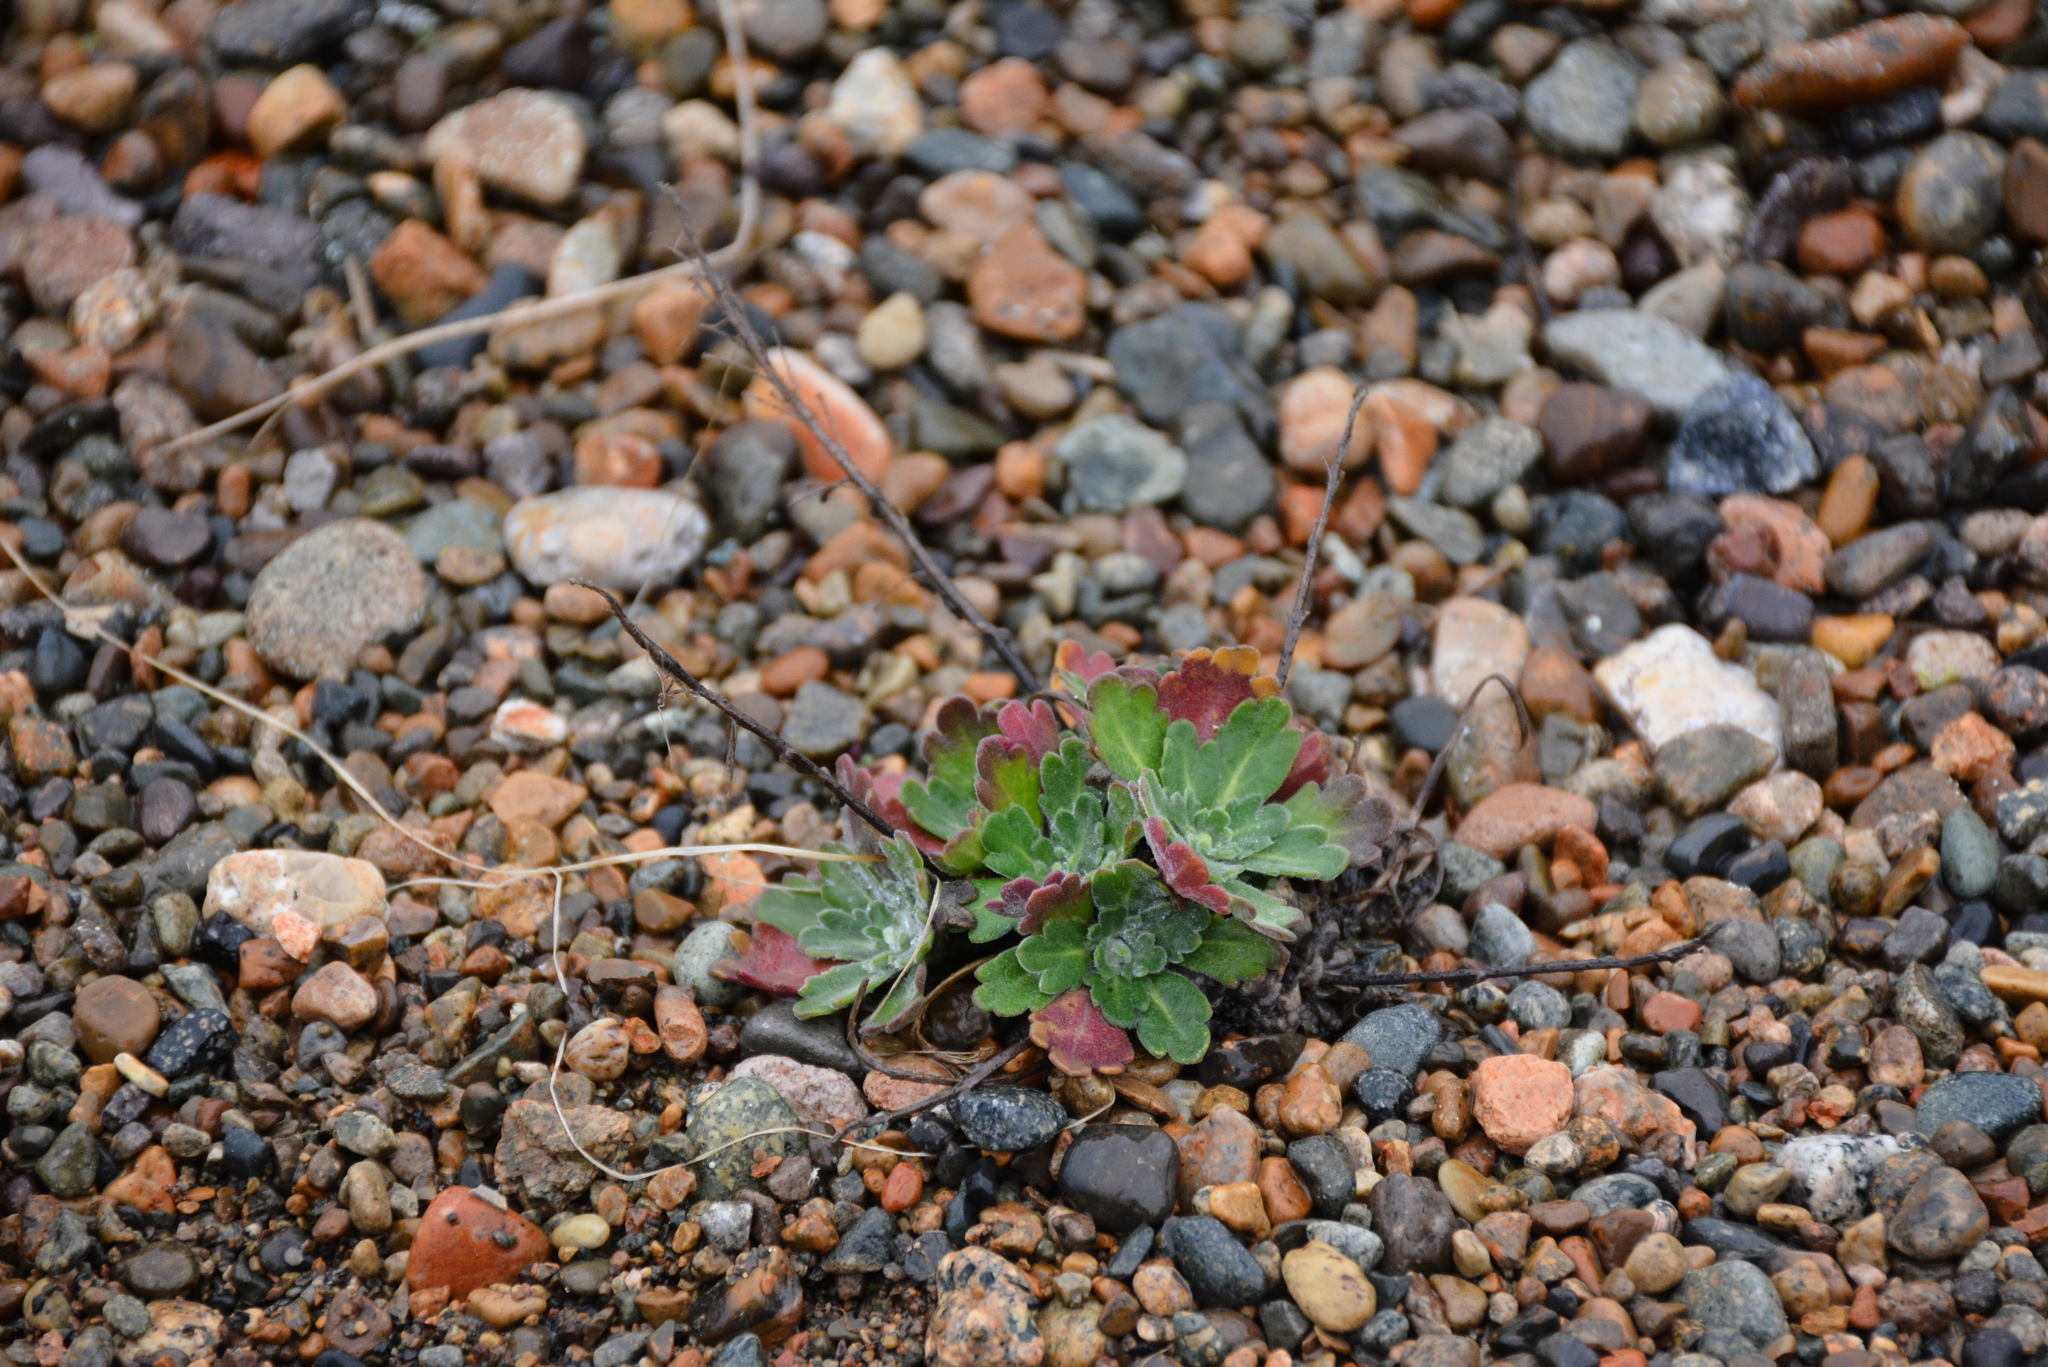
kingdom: Plantae
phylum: Tracheophyta
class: Magnoliopsida
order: Brassicales
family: Brassicaceae
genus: Smelowskia
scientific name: Smelowskia parryoides
